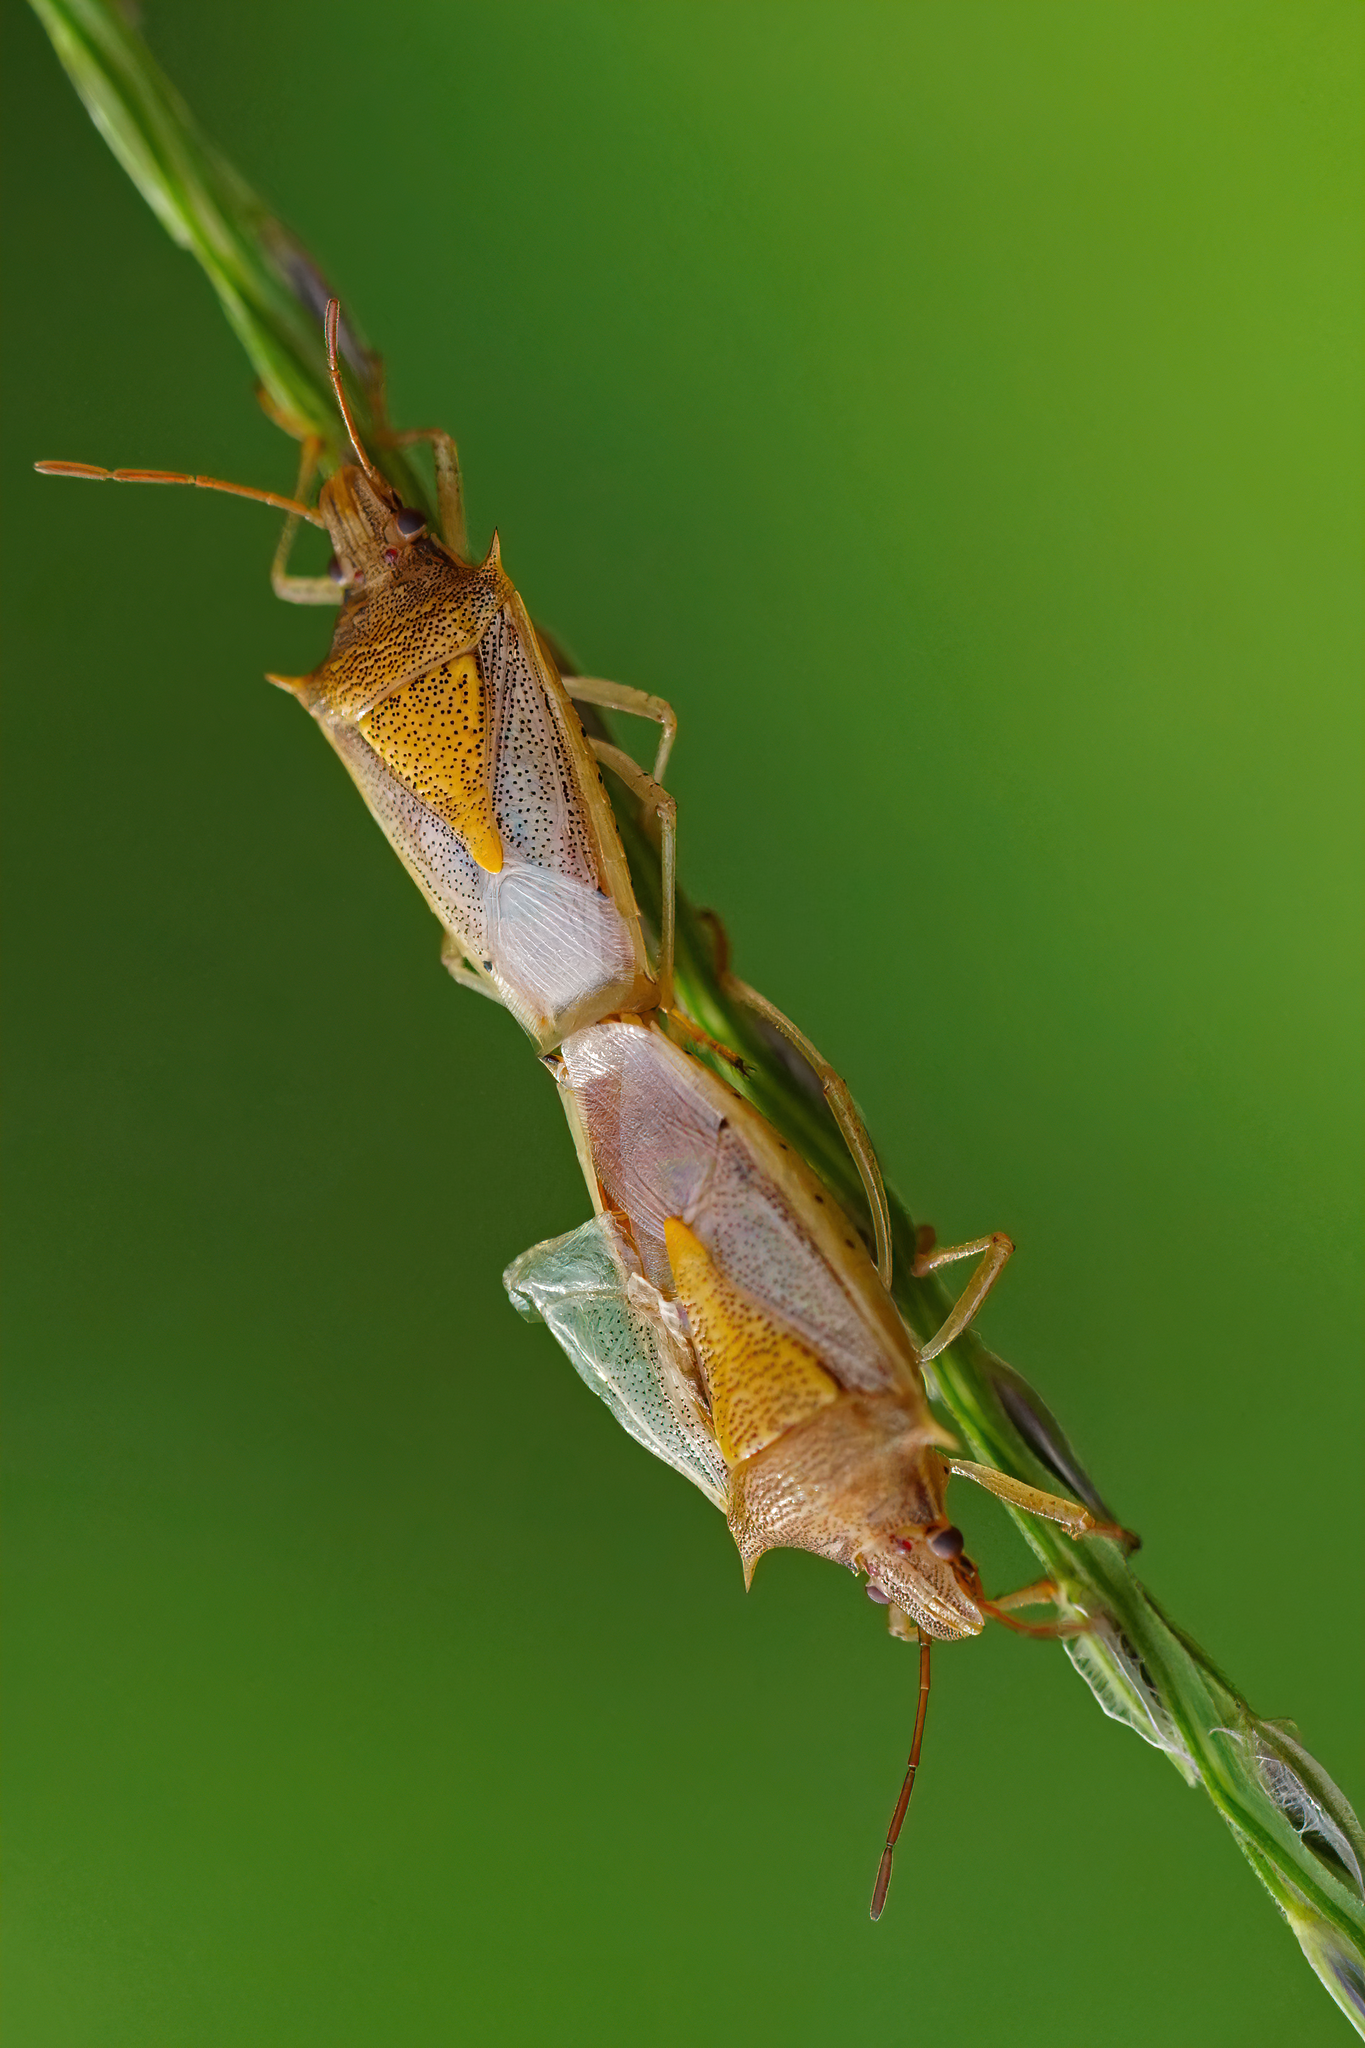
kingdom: Animalia
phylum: Arthropoda
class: Insecta
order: Hemiptera
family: Pentatomidae
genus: Oebalus
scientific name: Oebalus pugnax
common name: Rice stink bug
